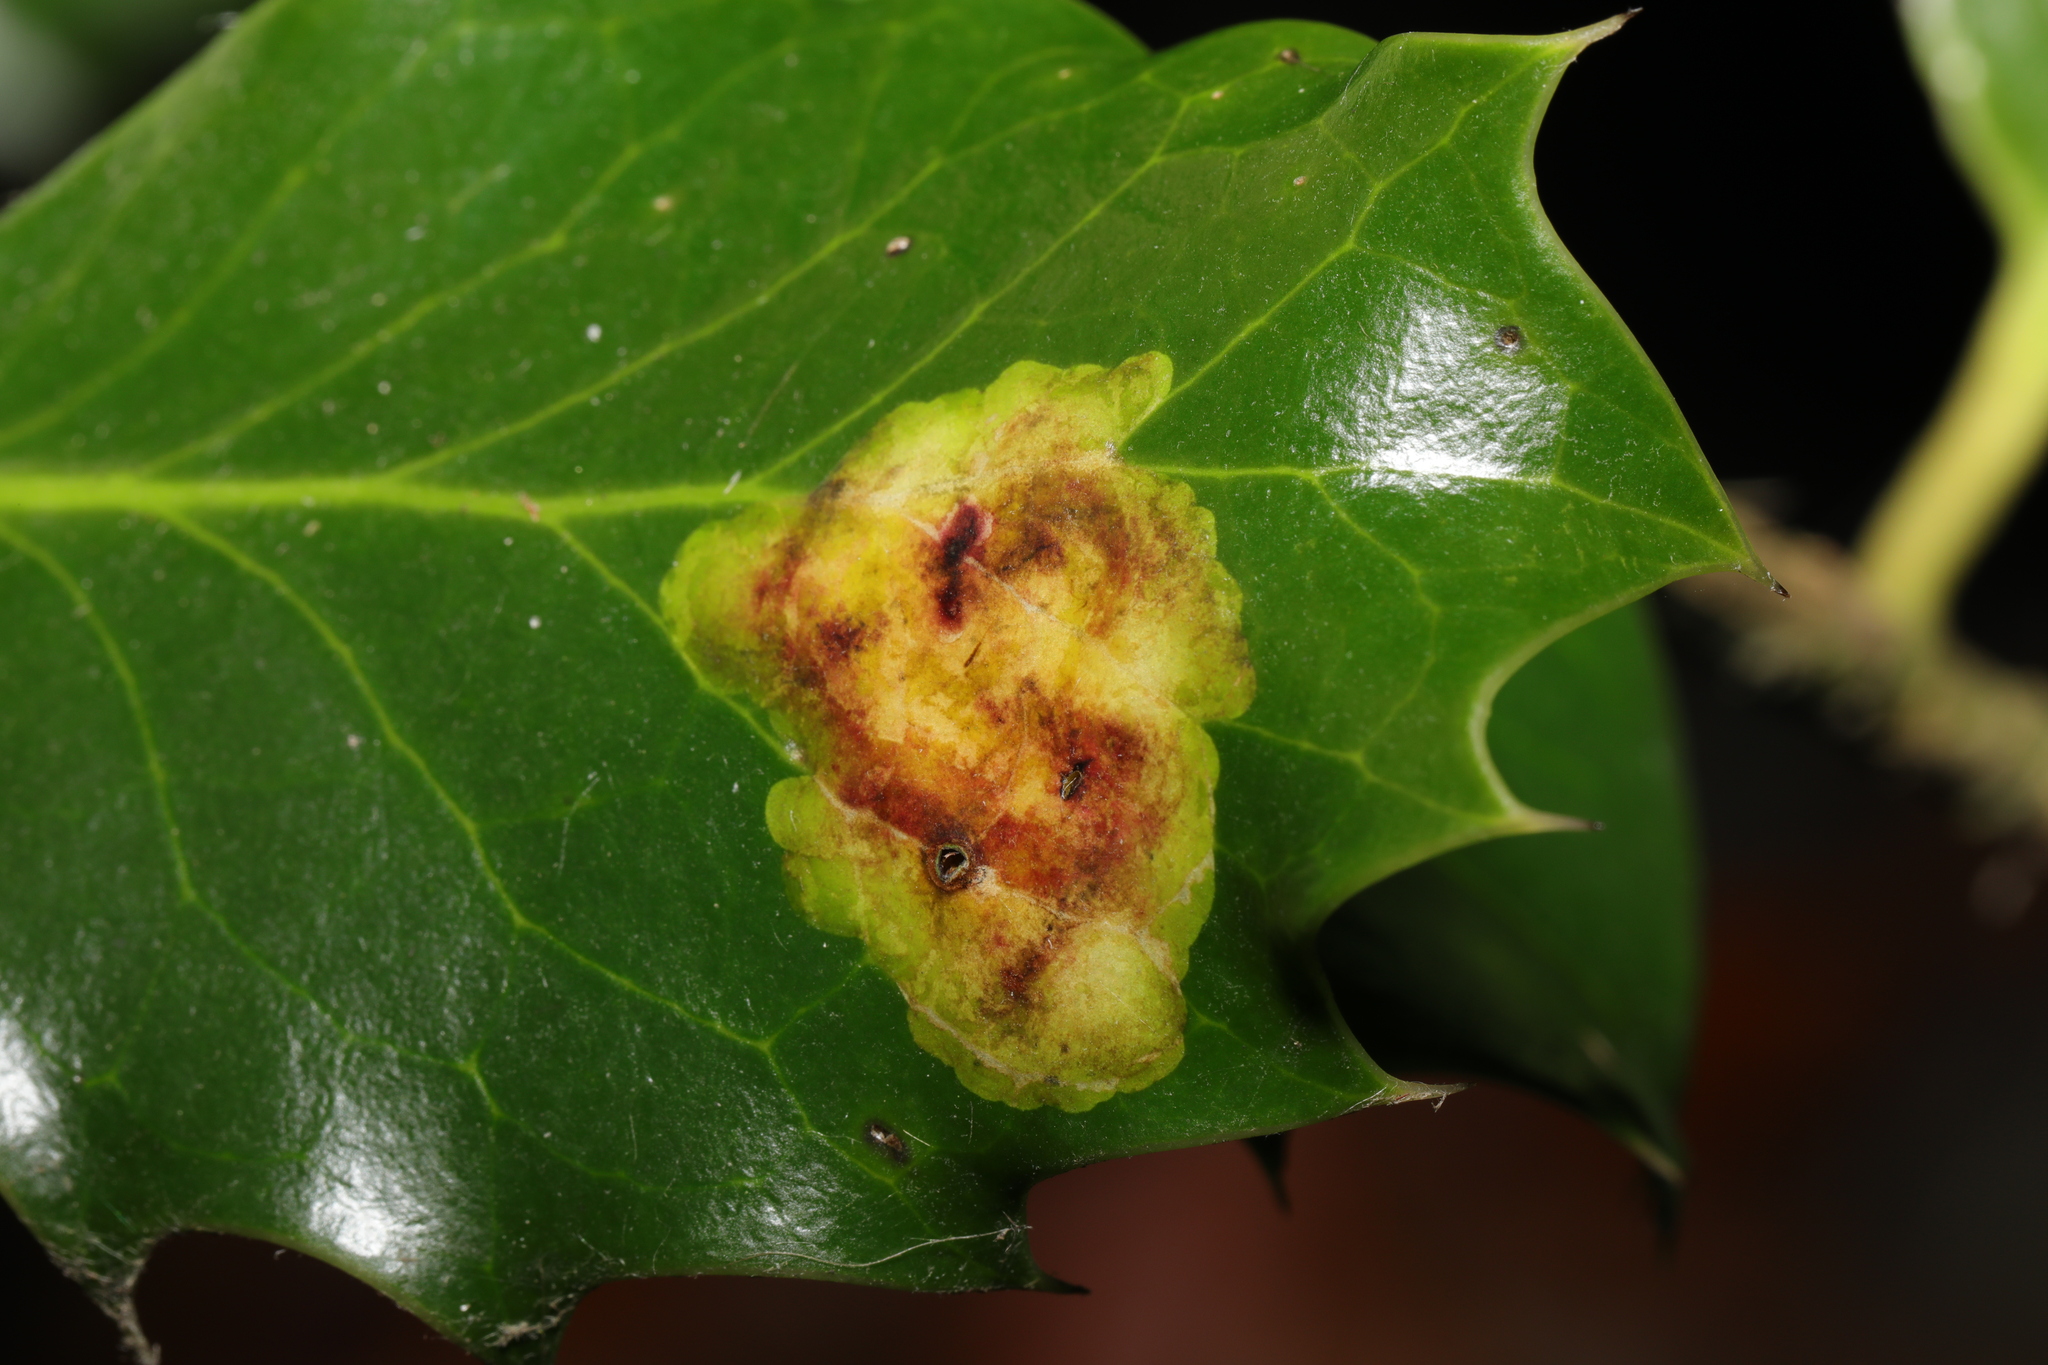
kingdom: Animalia
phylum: Arthropoda
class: Insecta
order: Diptera
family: Agromyzidae
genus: Phytomyza
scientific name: Phytomyza ilicis
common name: Holly leafminer
